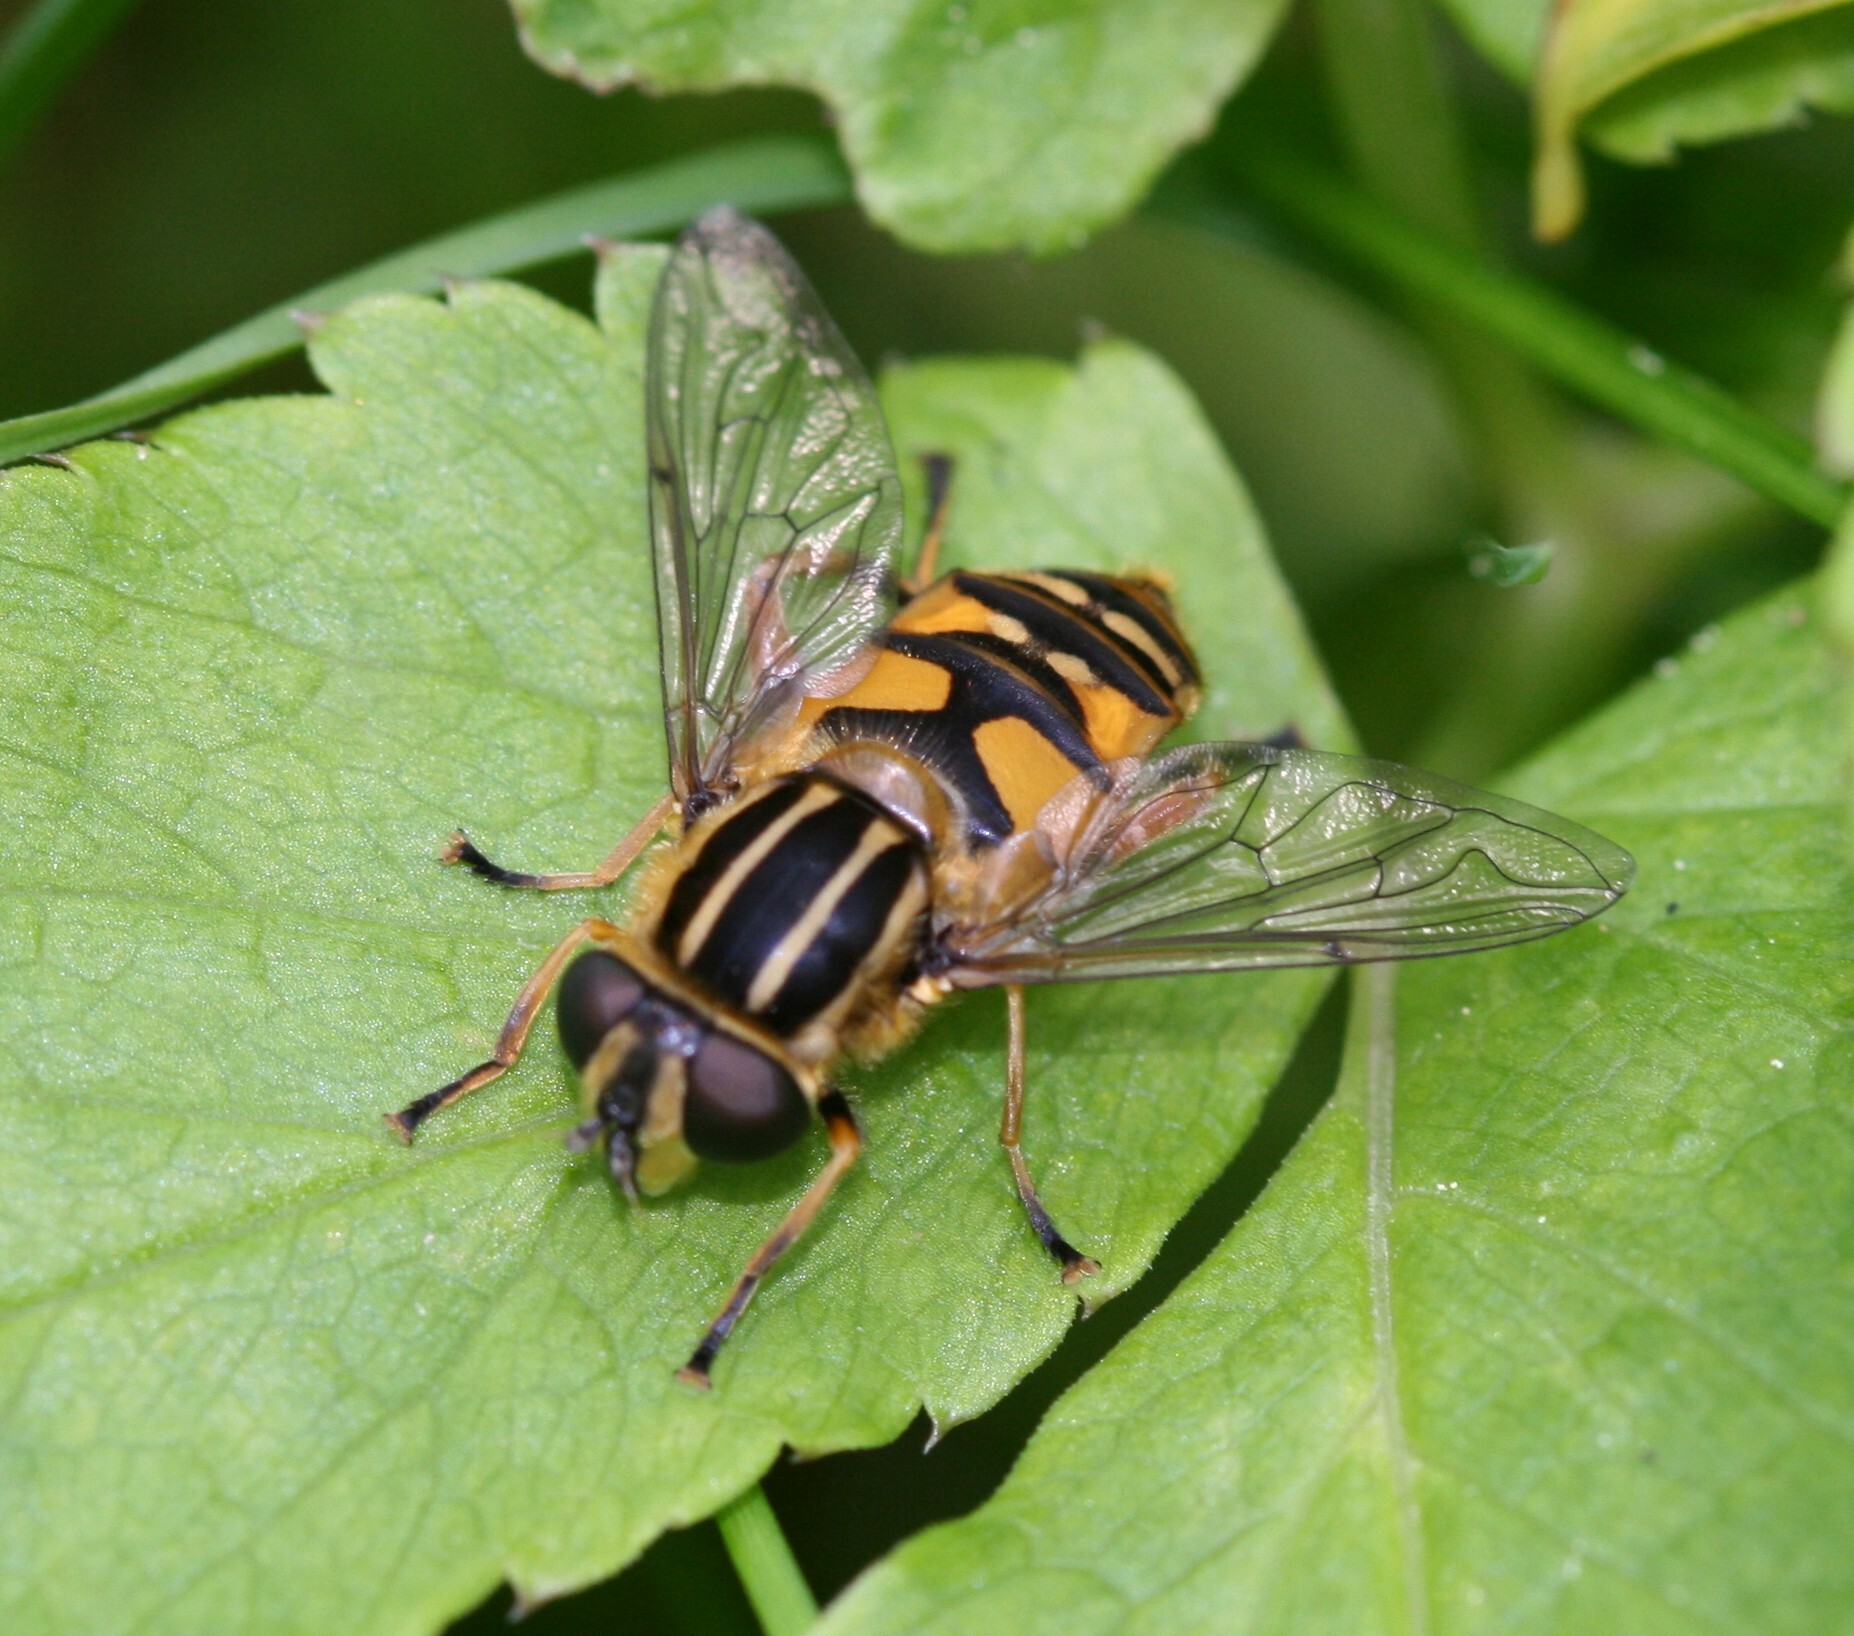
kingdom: Animalia
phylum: Arthropoda
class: Insecta
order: Diptera
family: Syrphidae
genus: Helophilus
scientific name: Helophilus pendulus
